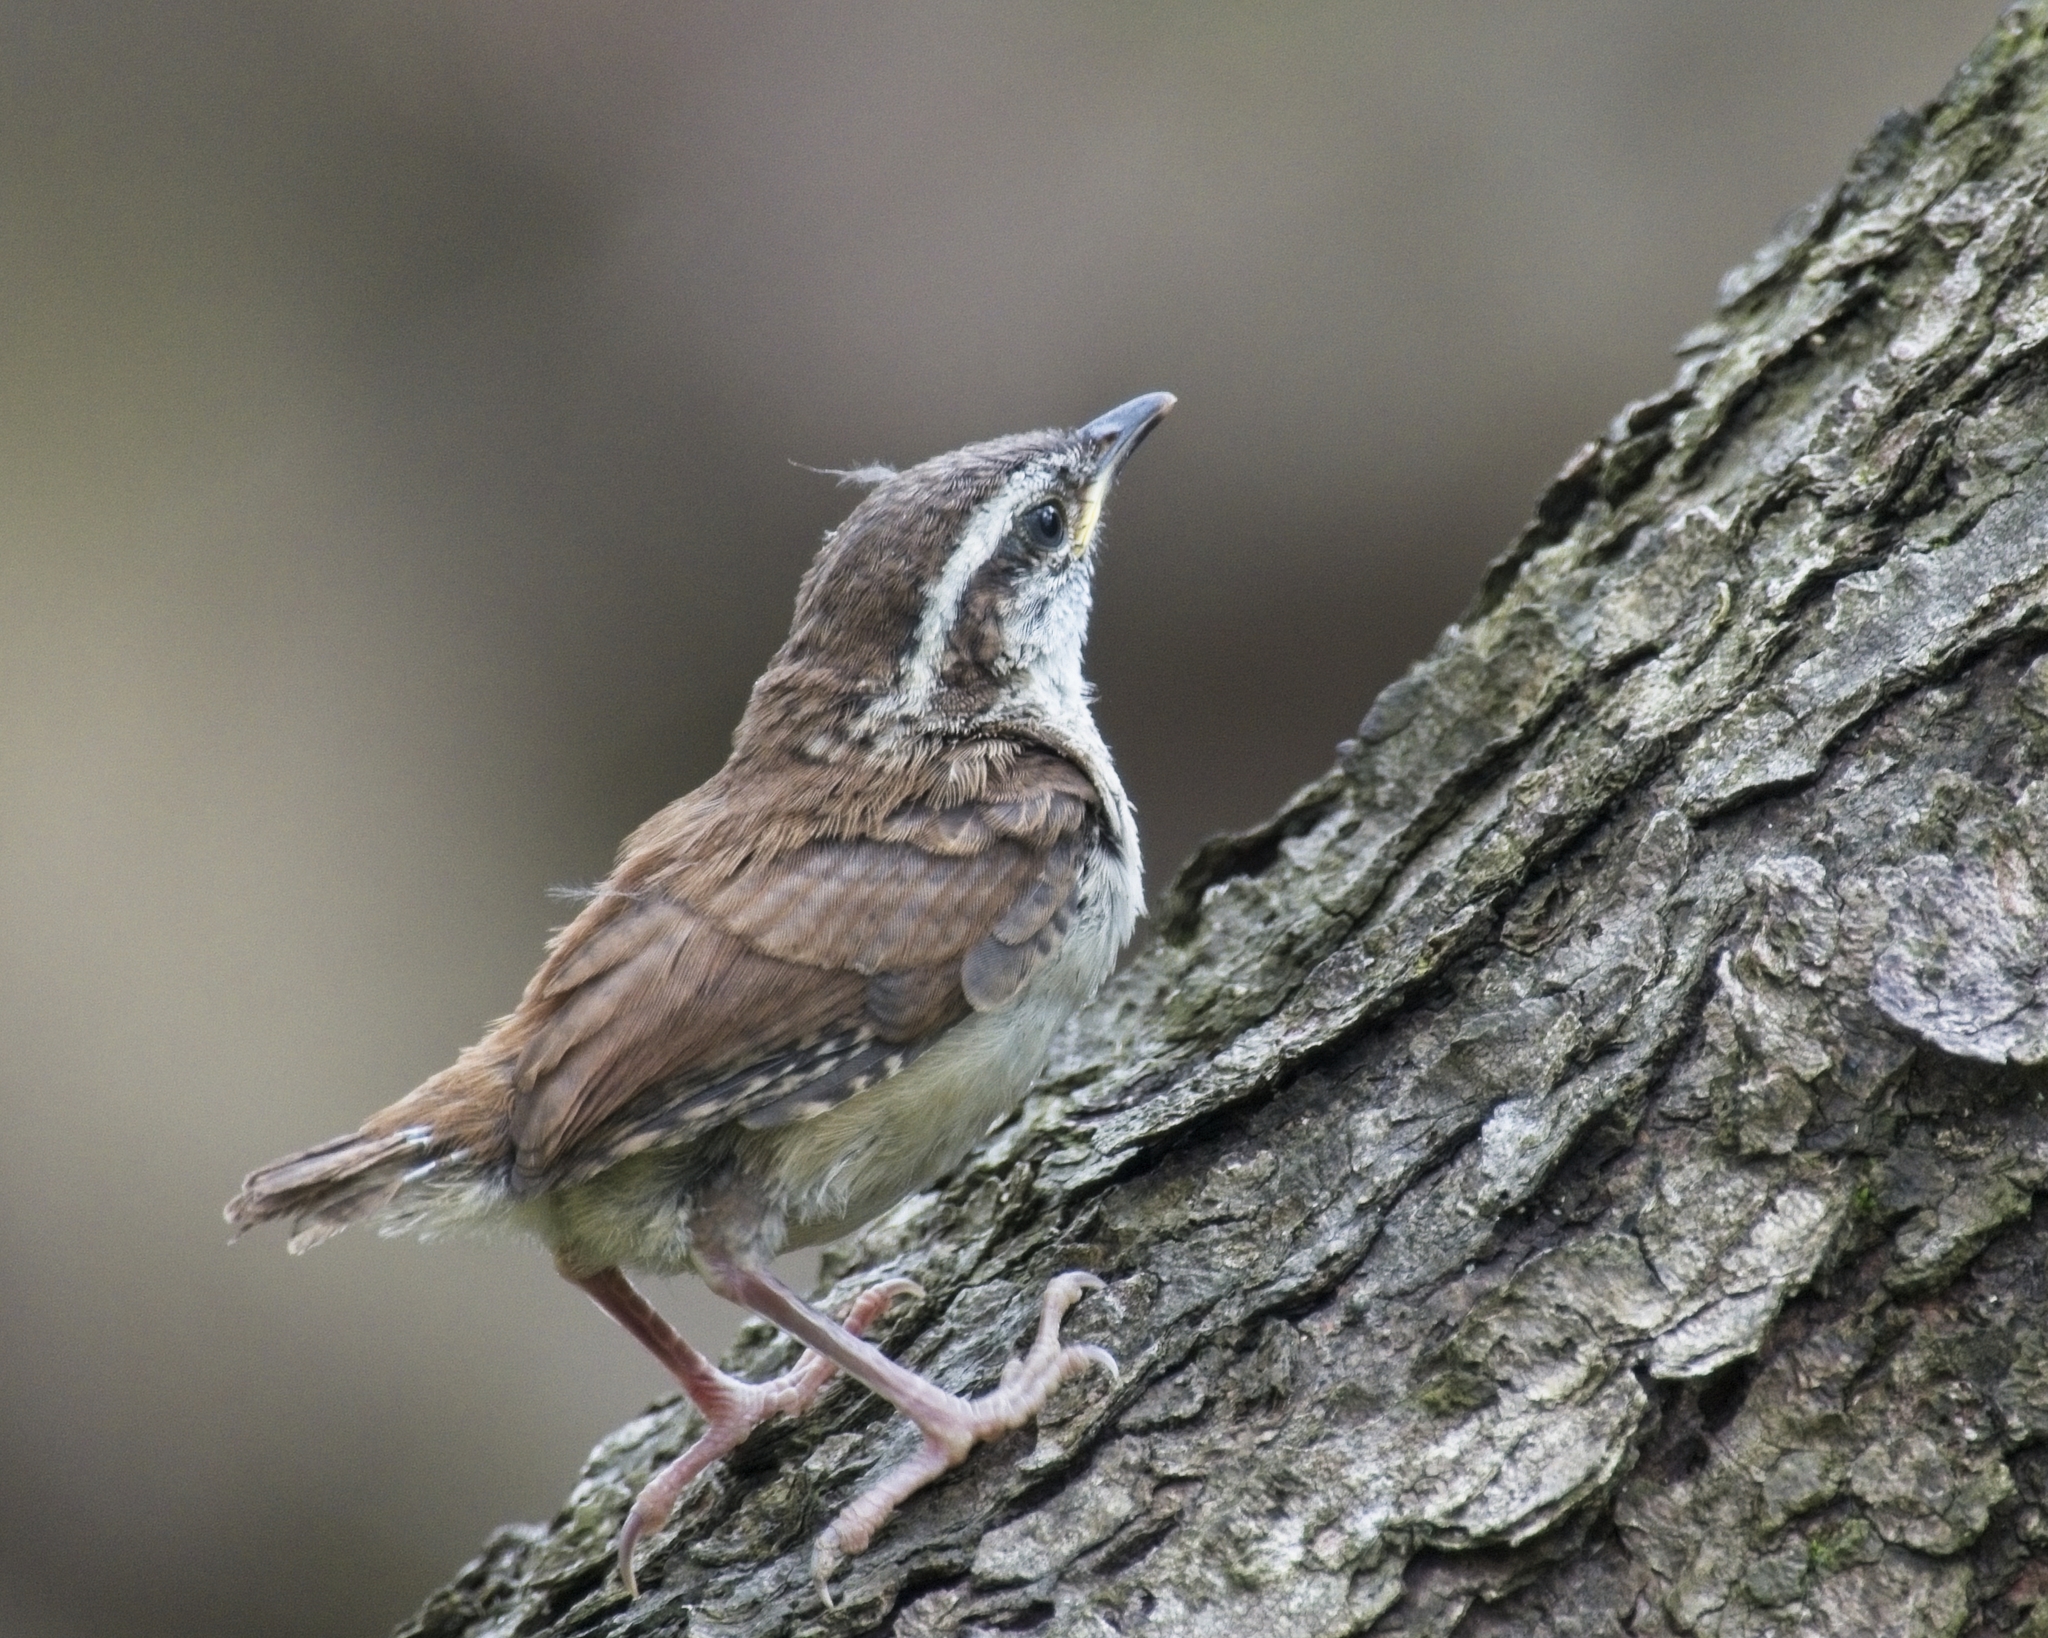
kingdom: Animalia
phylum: Chordata
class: Aves
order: Passeriformes
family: Troglodytidae
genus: Thryothorus
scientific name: Thryothorus ludovicianus
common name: Carolina wren
